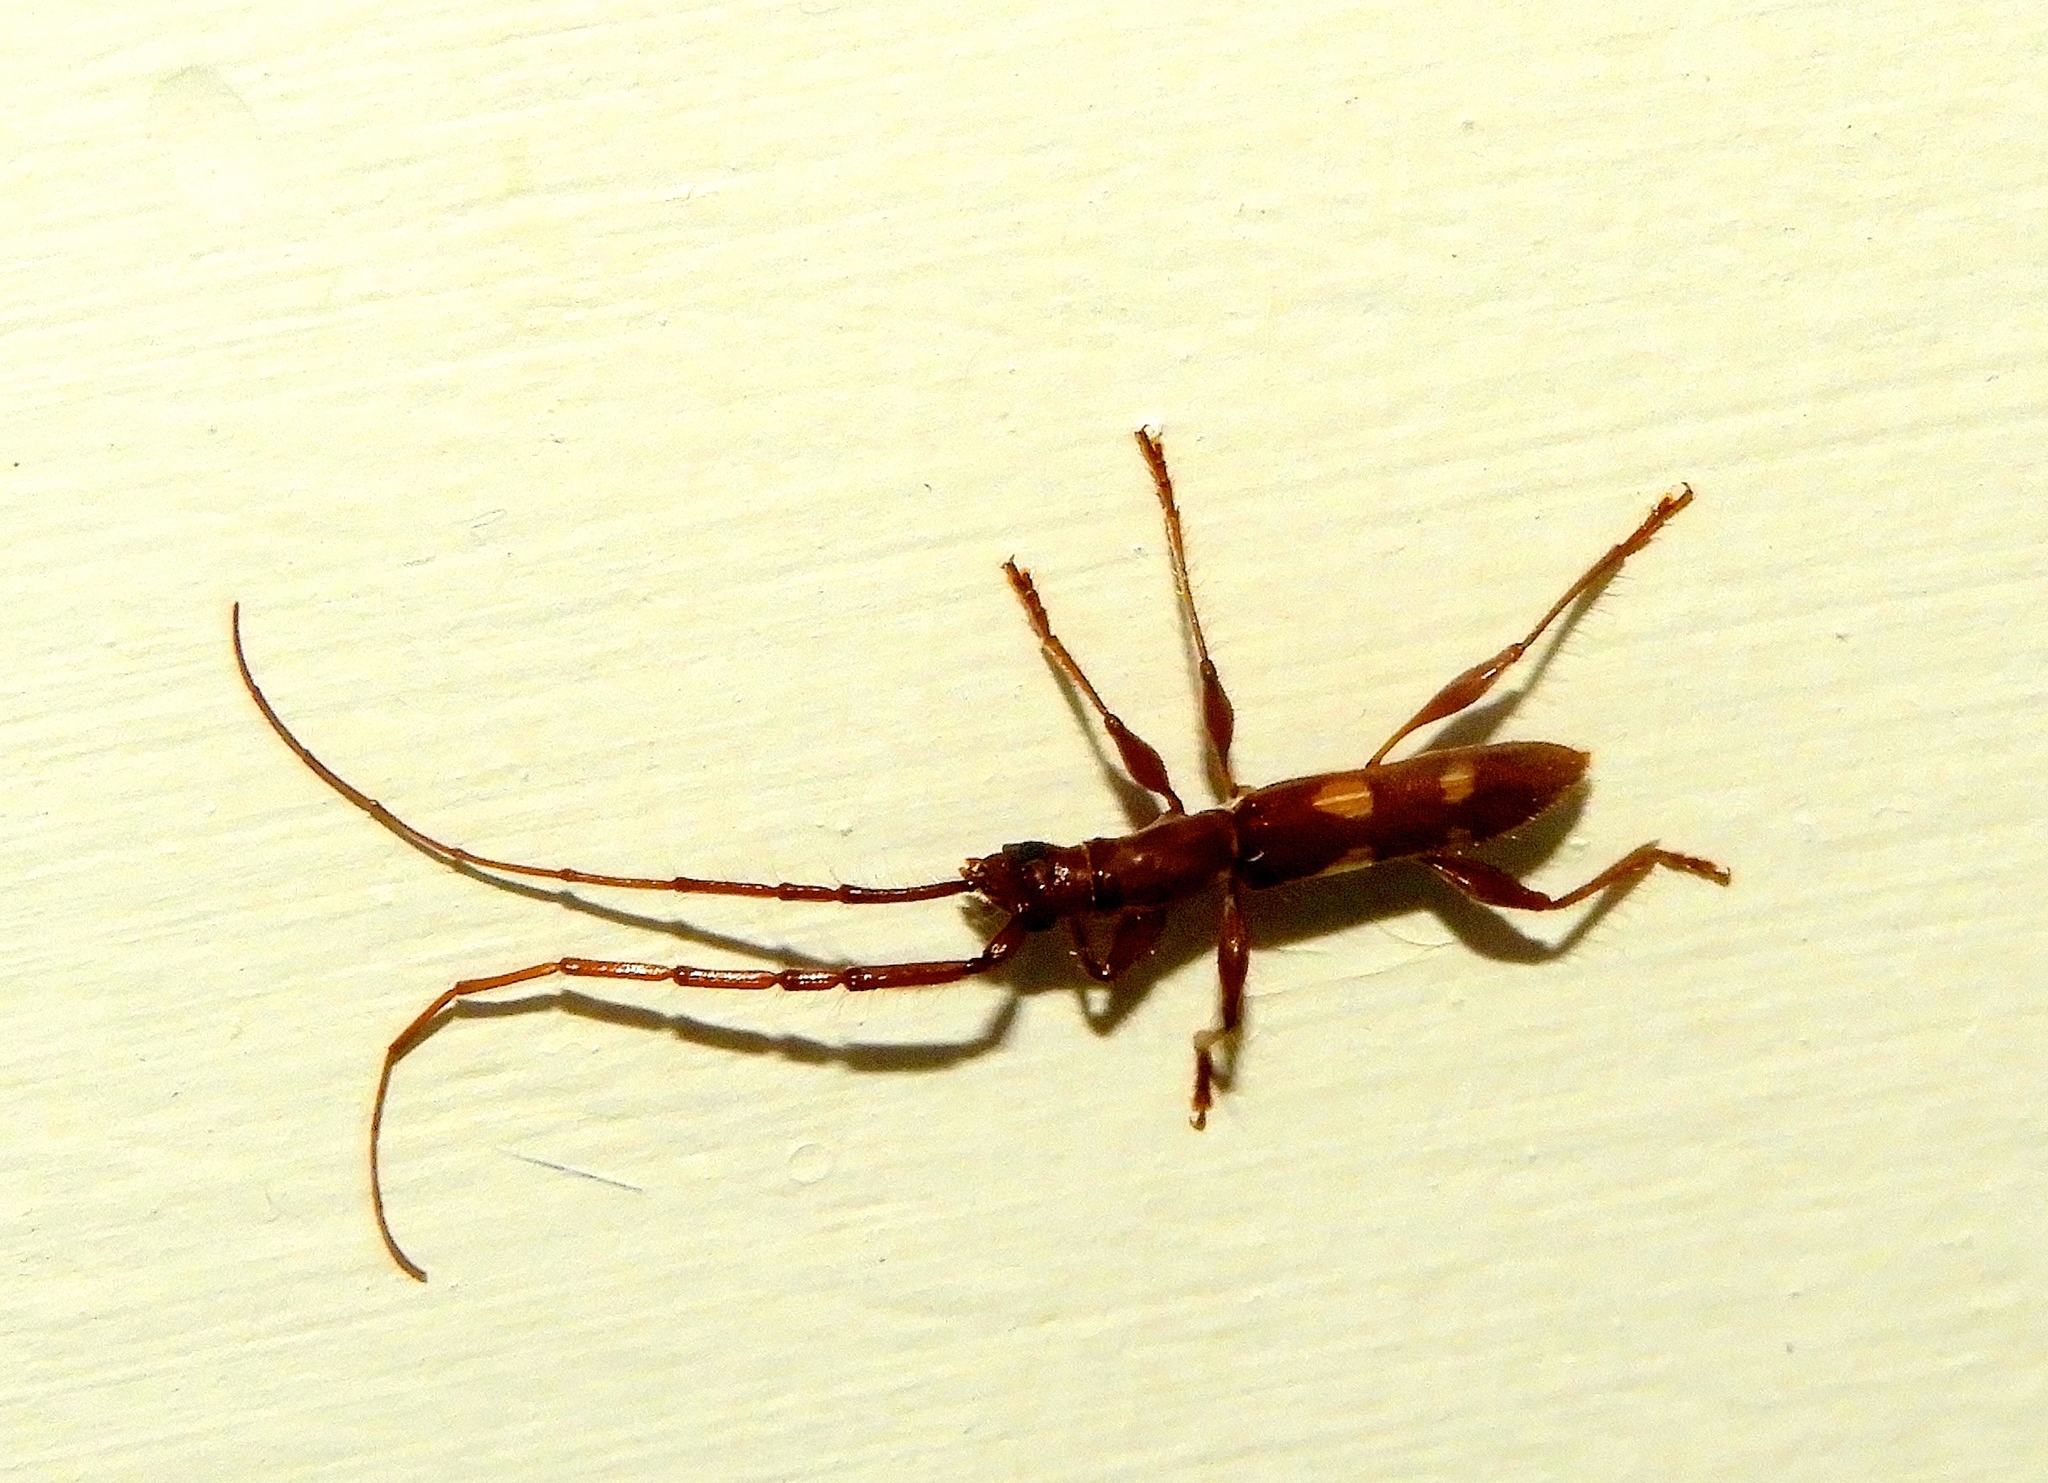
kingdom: Animalia
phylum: Arthropoda
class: Insecta
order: Coleoptera
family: Cerambycidae
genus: Neocompsa
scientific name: Neocompsa
